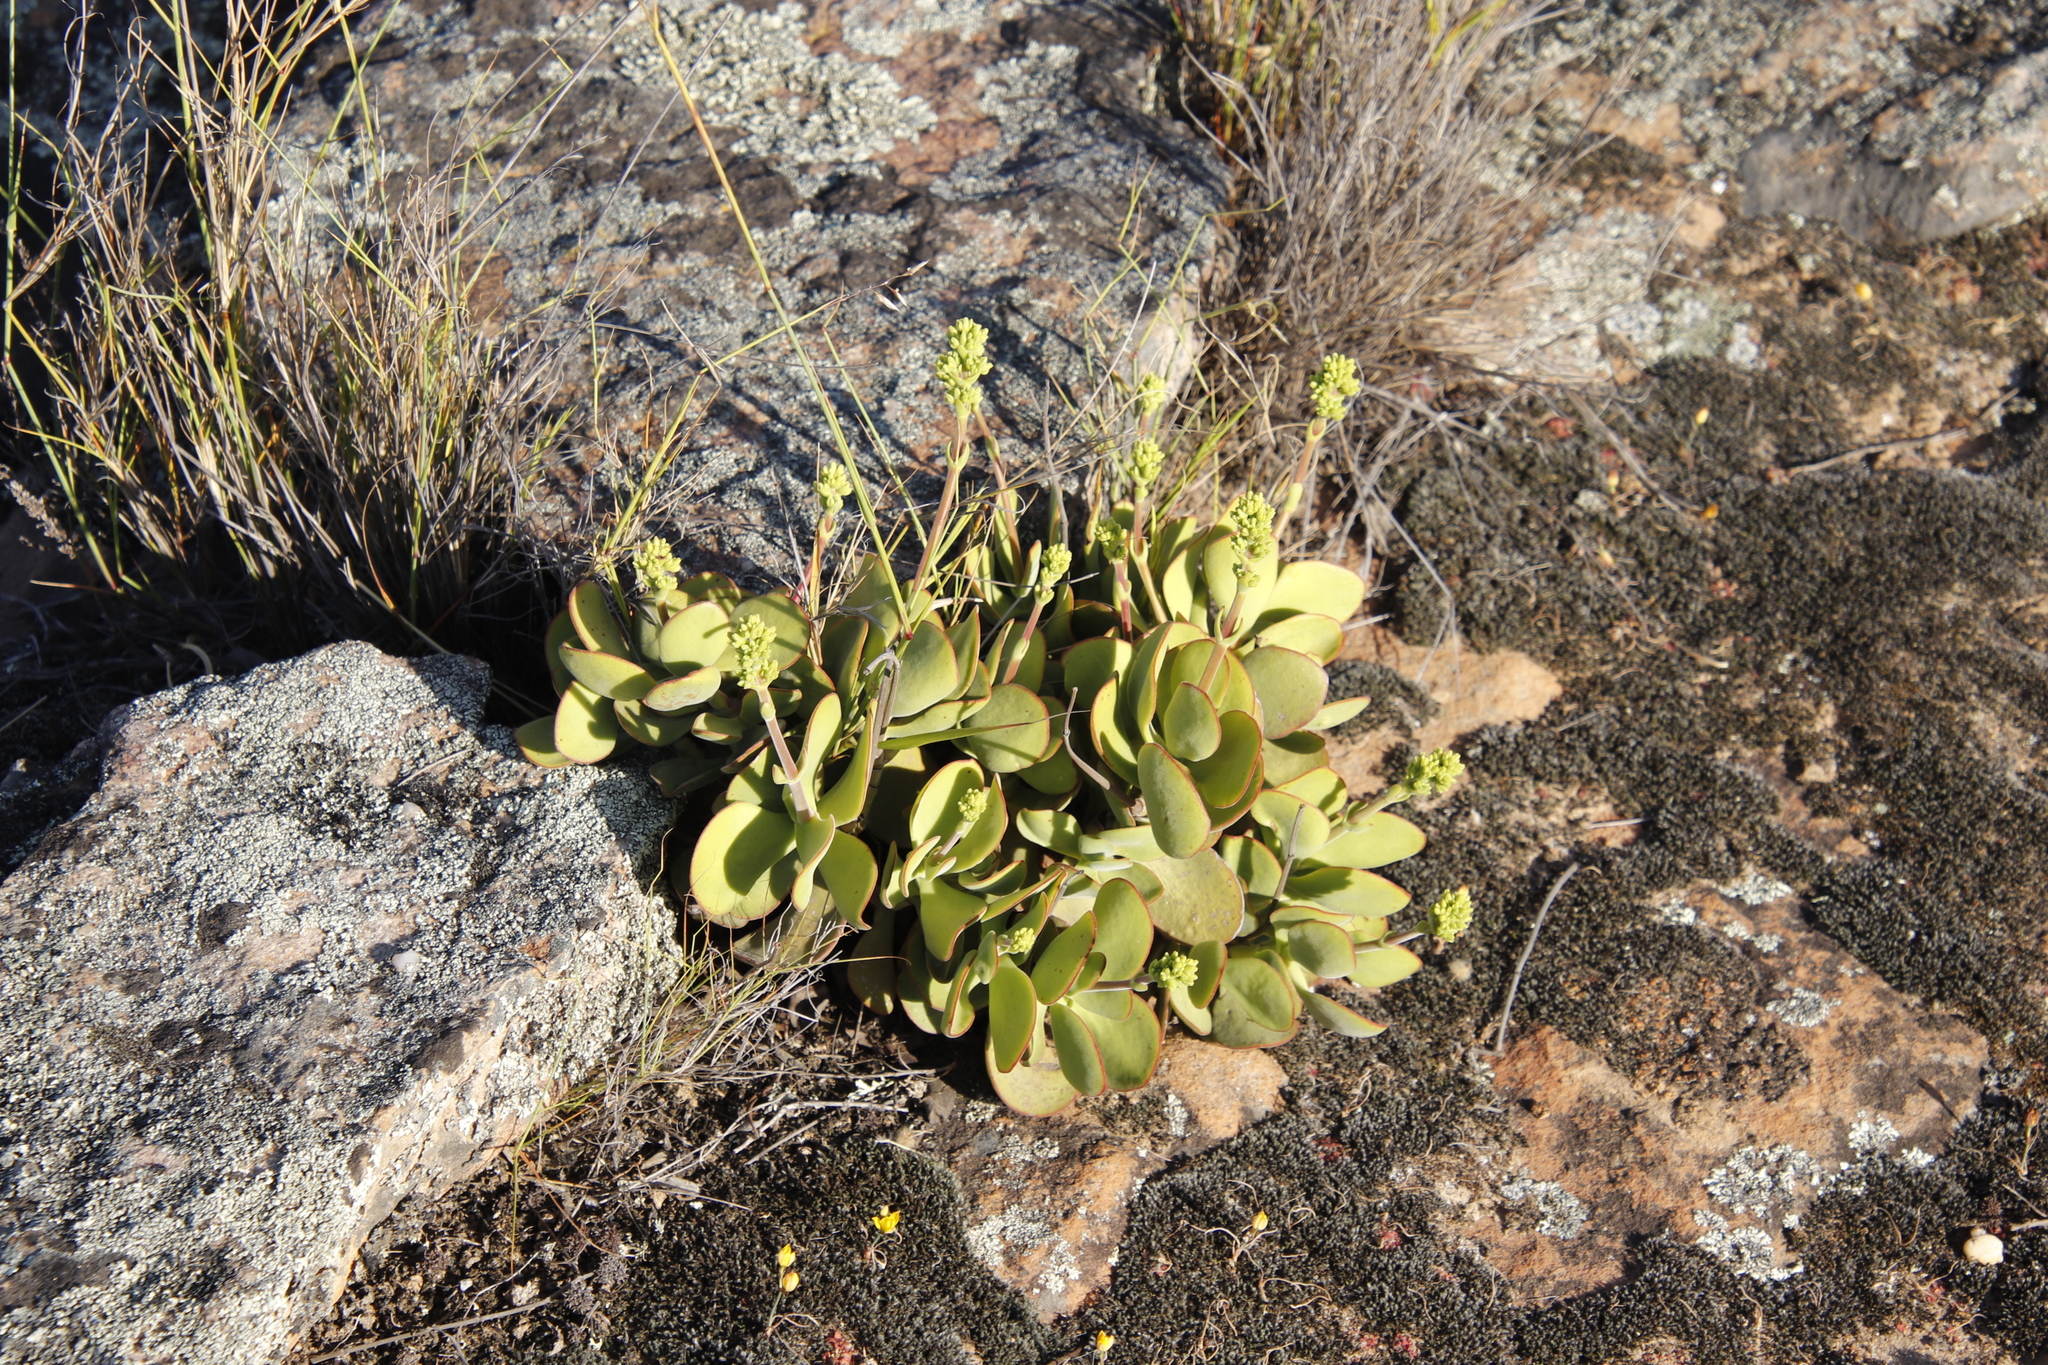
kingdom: Plantae
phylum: Tracheophyta
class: Magnoliopsida
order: Saxifragales
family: Crassulaceae
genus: Crassula
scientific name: Crassula atropurpurea
